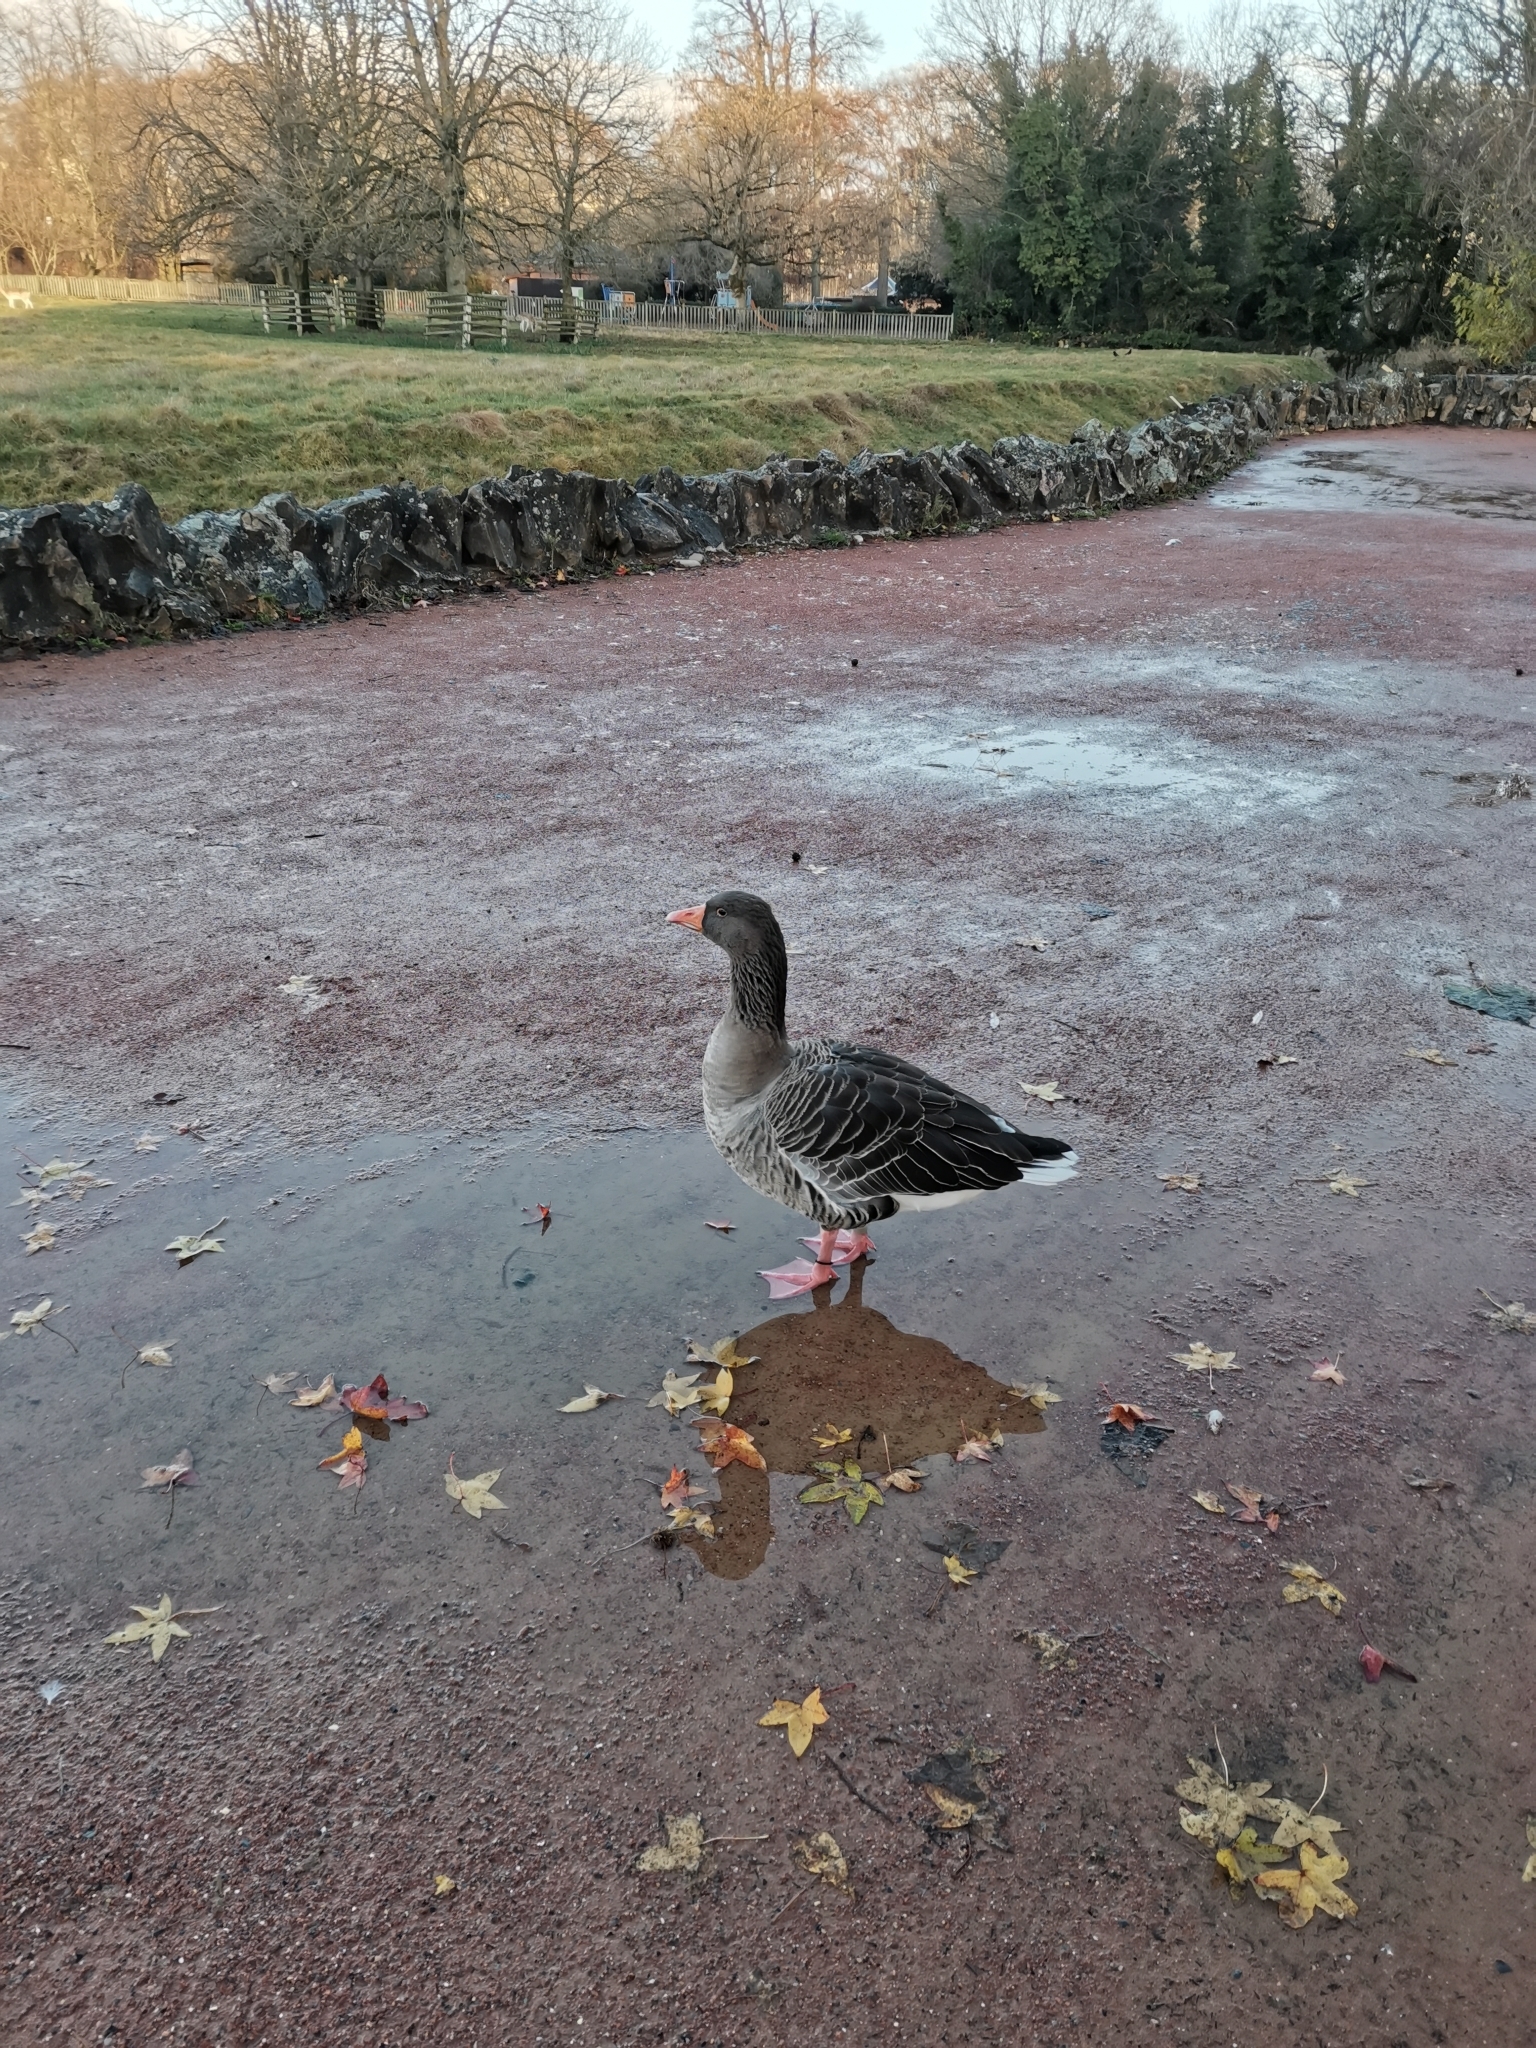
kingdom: Animalia
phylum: Chordata
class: Aves
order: Anseriformes
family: Anatidae
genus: Anser
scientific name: Anser anser
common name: Greylag goose
